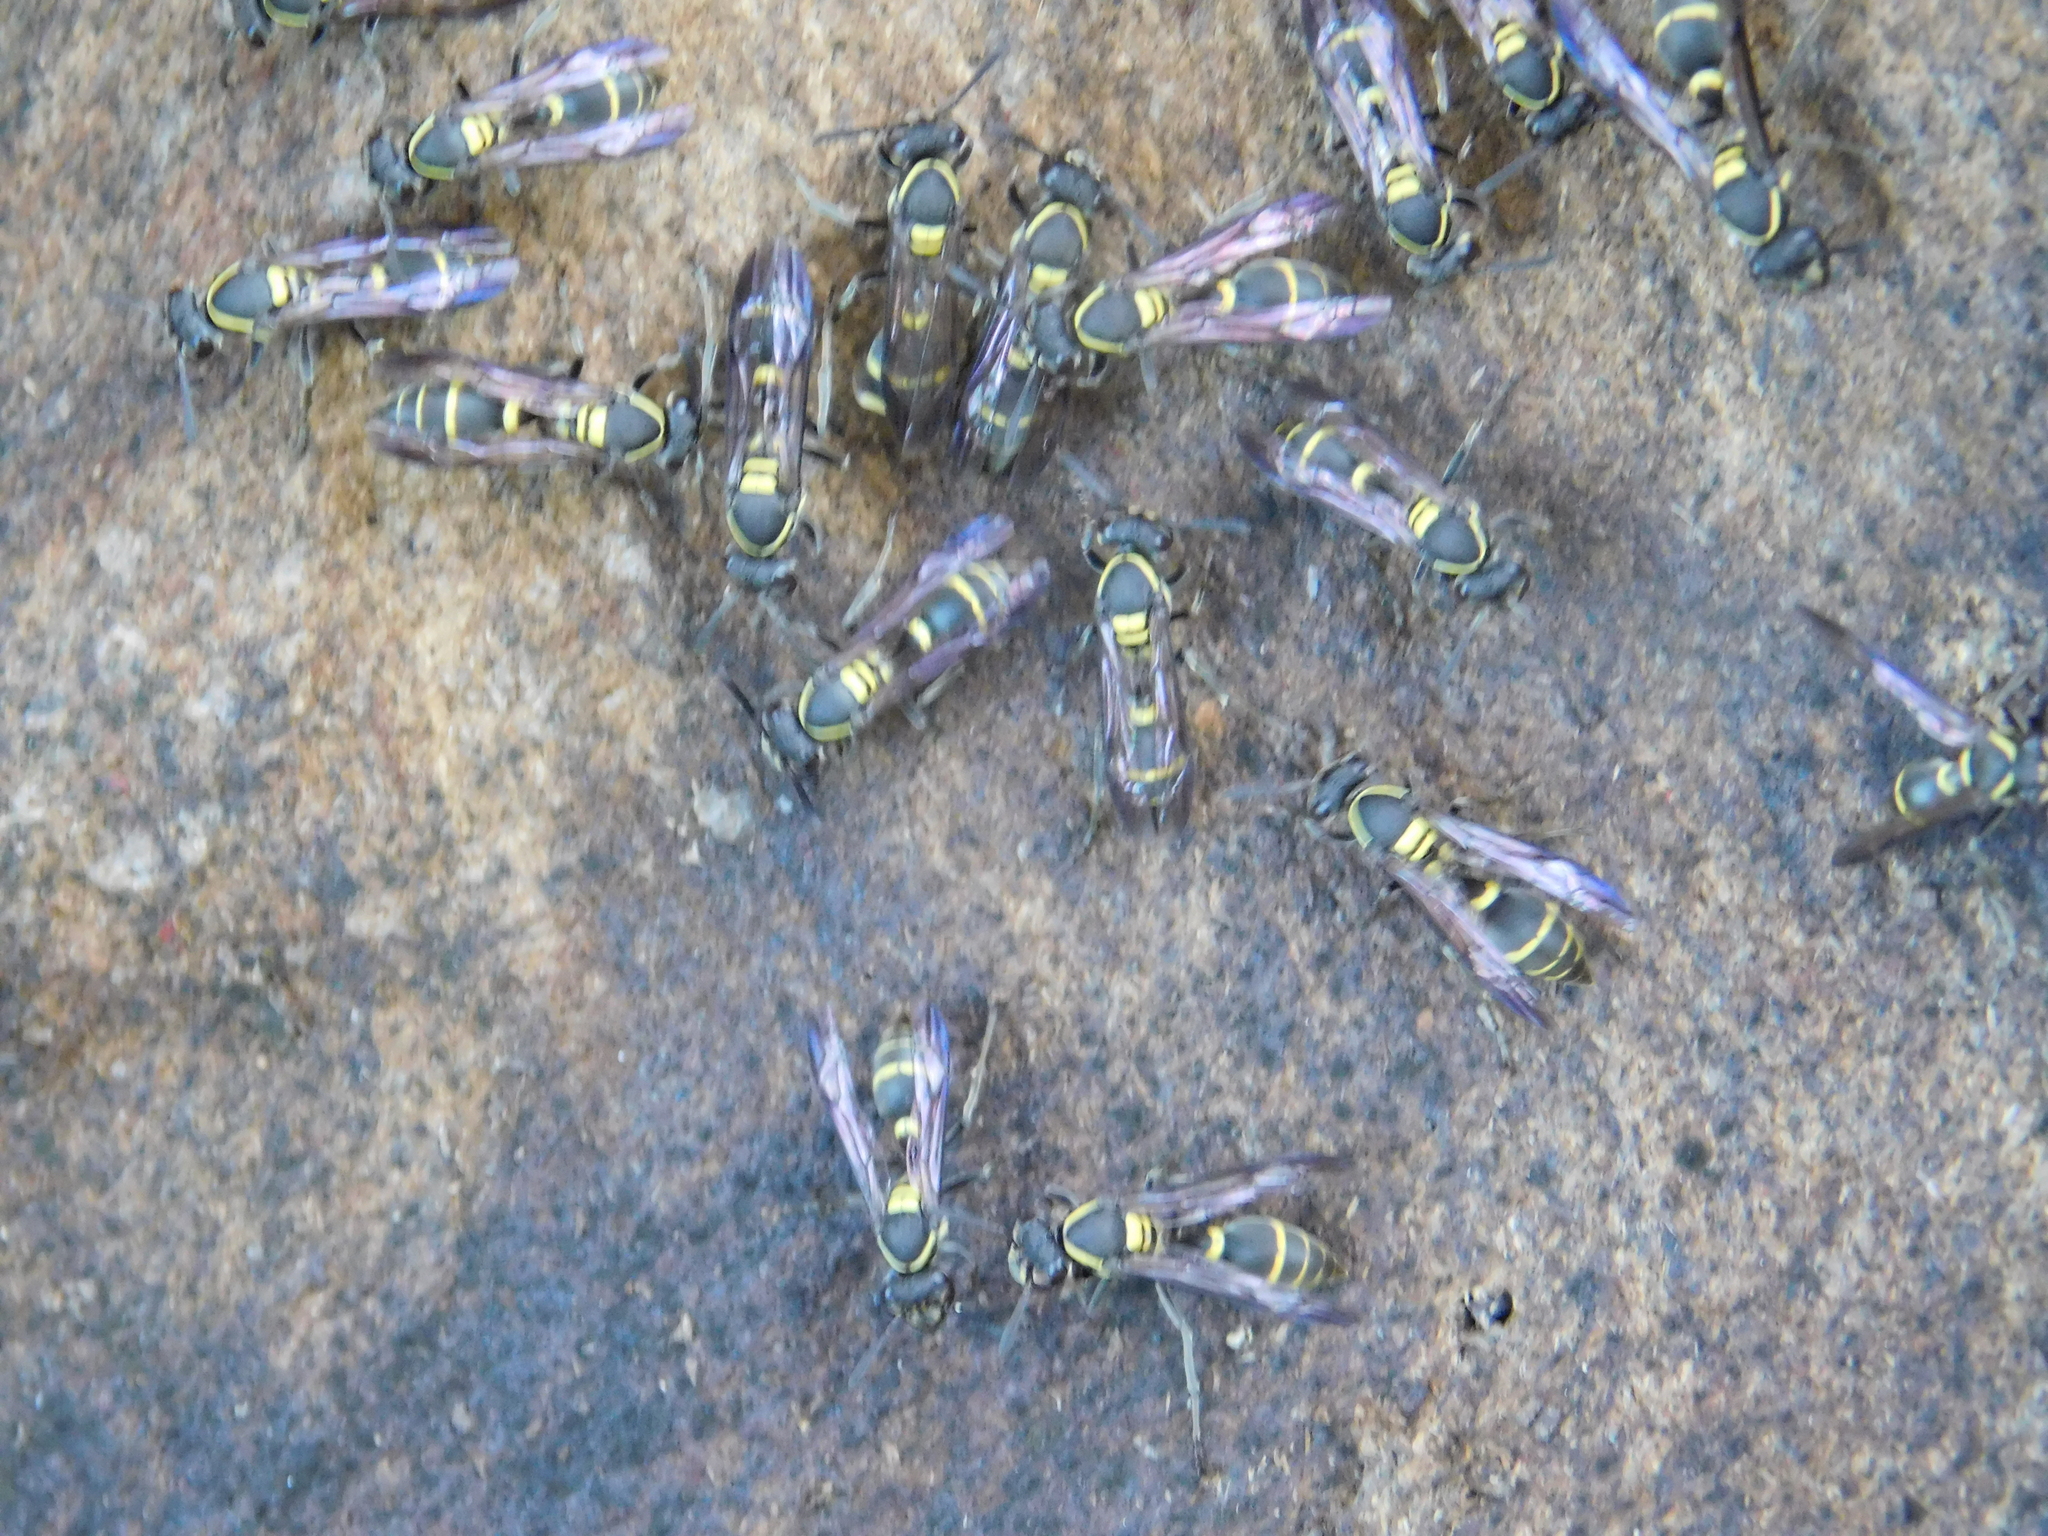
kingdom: Animalia
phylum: Arthropoda
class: Insecta
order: Hymenoptera
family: Eumenidae
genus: Polybia
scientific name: Polybia occidentalis
